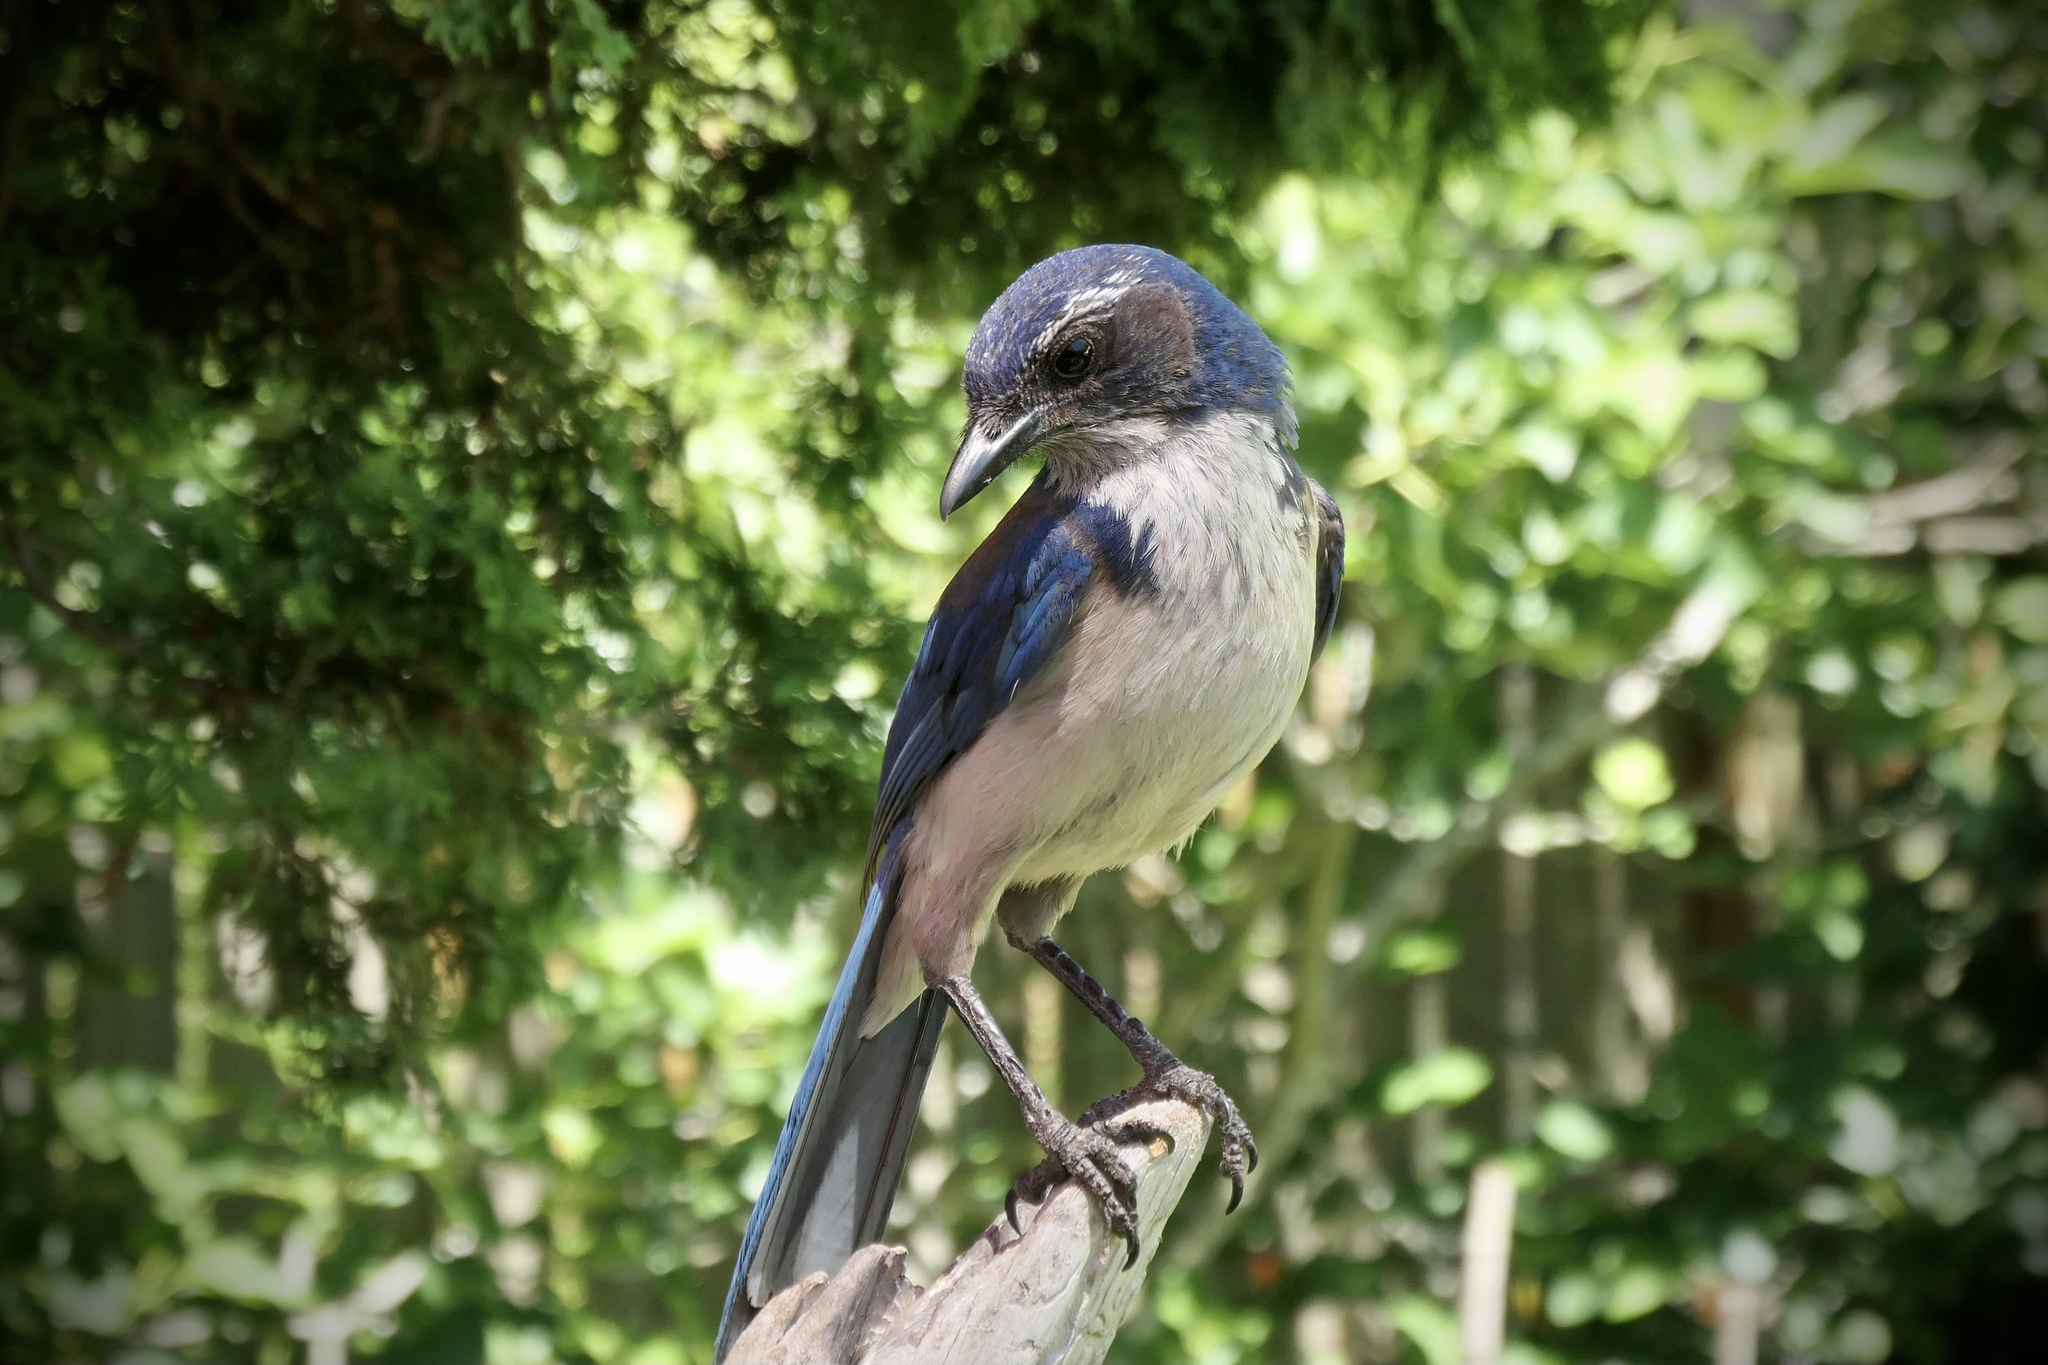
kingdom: Animalia
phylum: Chordata
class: Aves
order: Passeriformes
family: Corvidae
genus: Aphelocoma
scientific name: Aphelocoma californica
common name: California scrub-jay
